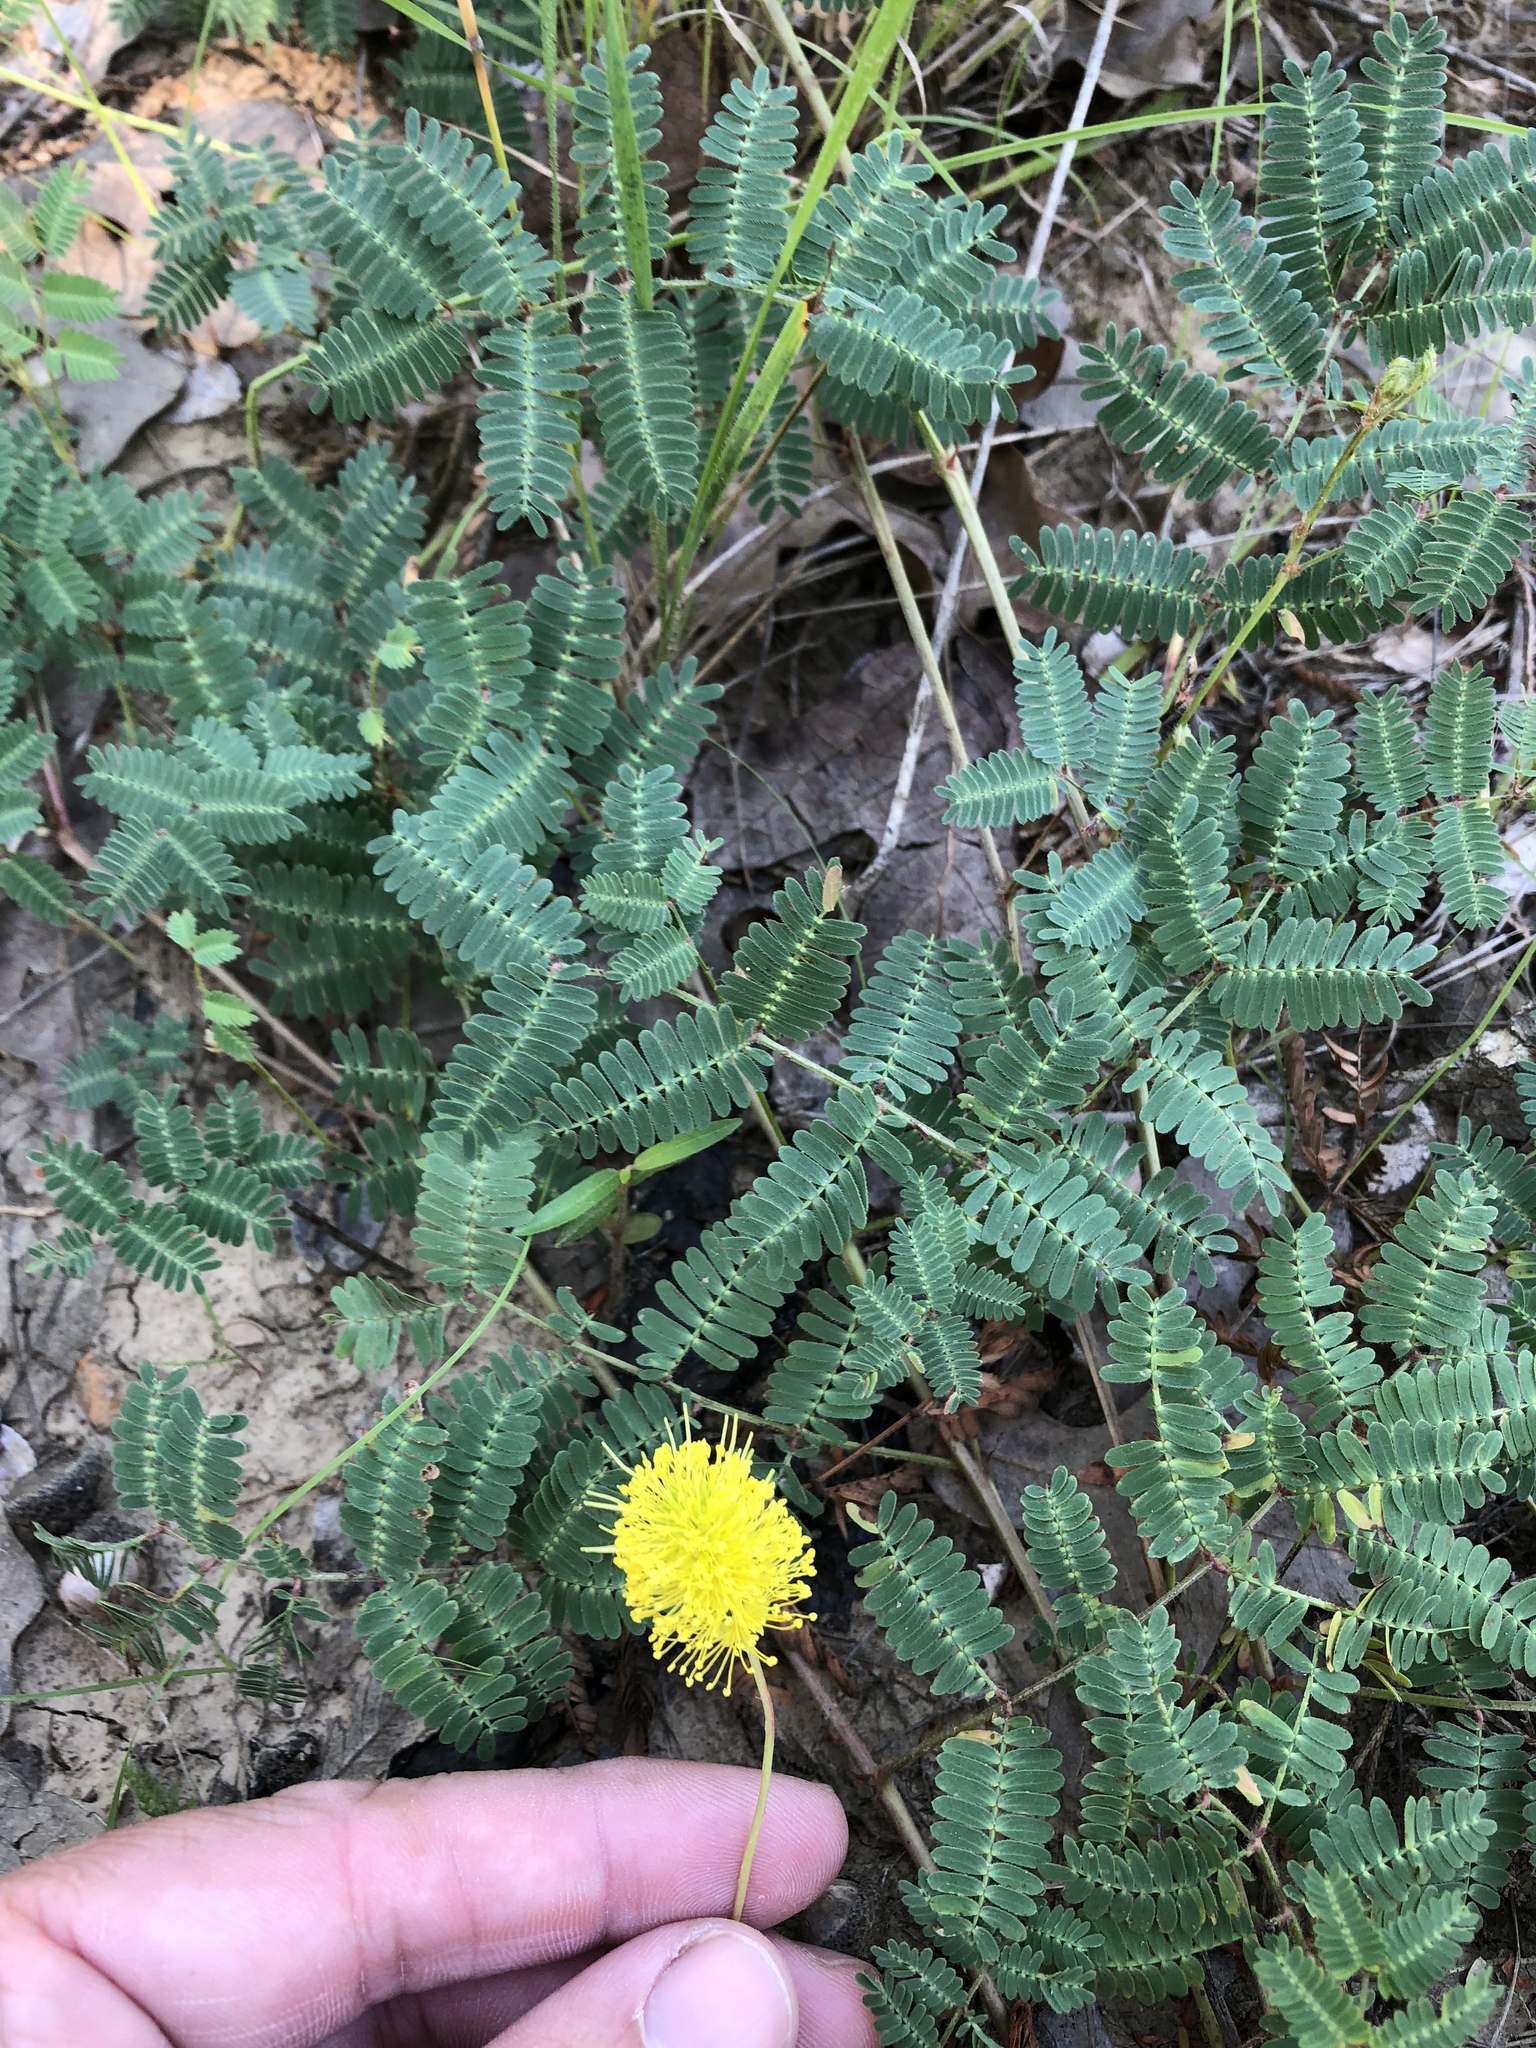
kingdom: Plantae
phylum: Tracheophyta
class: Magnoliopsida
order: Fabales
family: Fabaceae
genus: Neptunia
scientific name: Neptunia lutea
